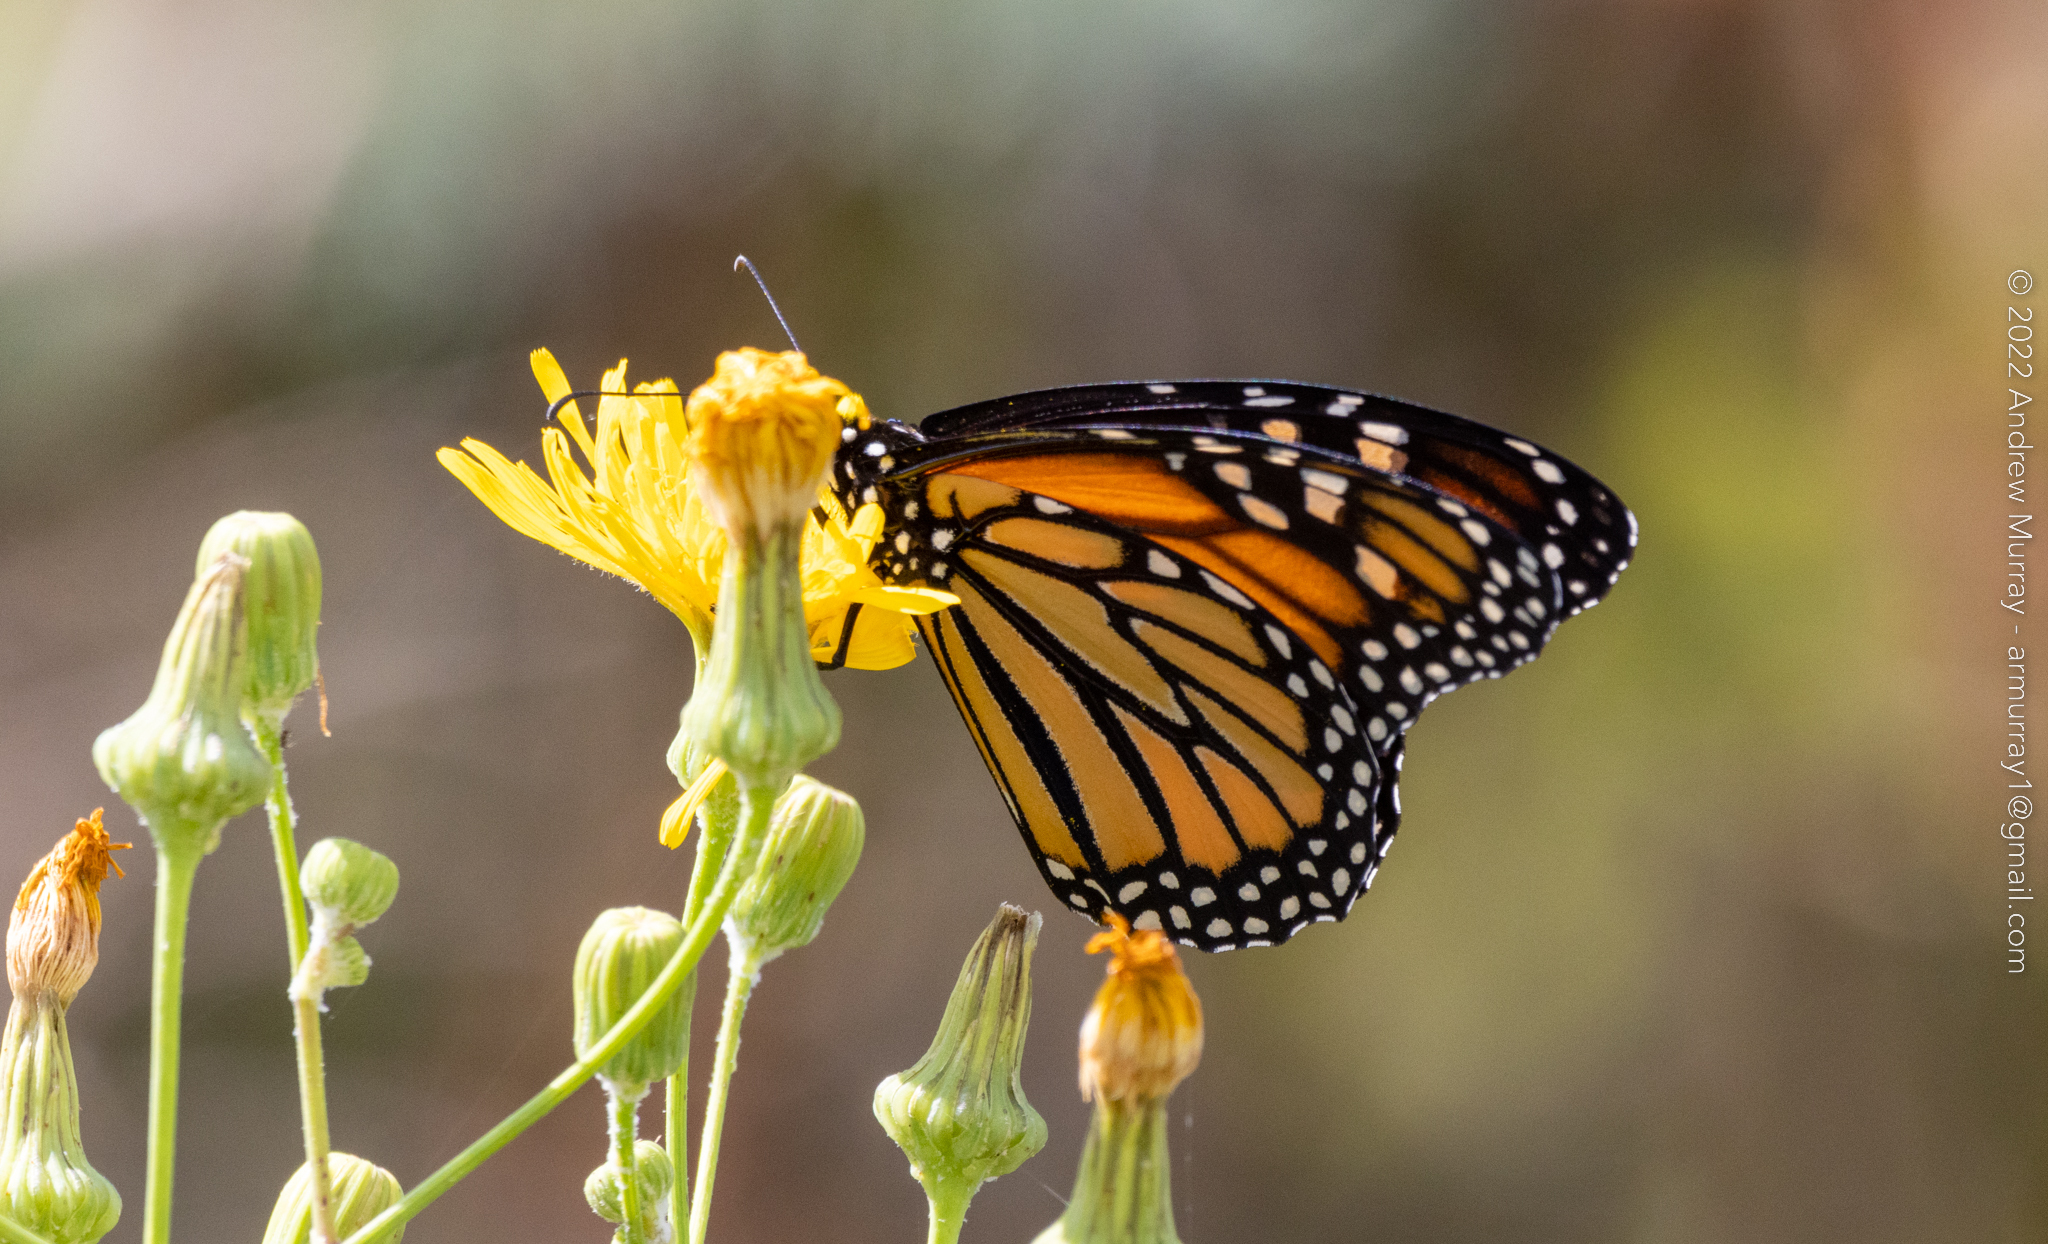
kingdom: Animalia
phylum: Arthropoda
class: Insecta
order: Lepidoptera
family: Nymphalidae
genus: Danaus
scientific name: Danaus plexippus
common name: Monarch
